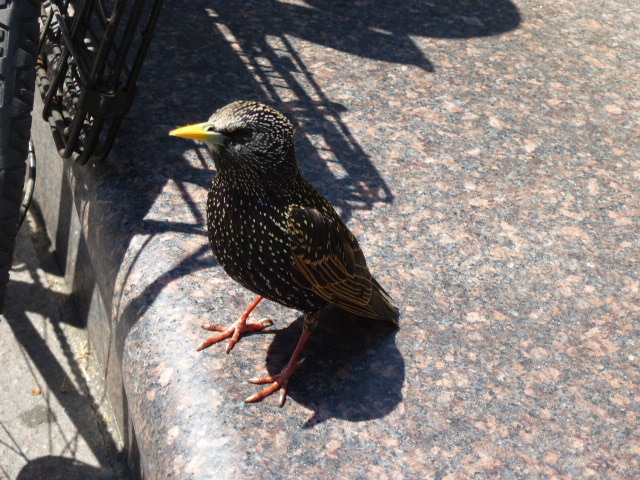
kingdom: Animalia
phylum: Chordata
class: Aves
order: Passeriformes
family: Sturnidae
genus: Sturnus
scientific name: Sturnus vulgaris
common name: Common starling
